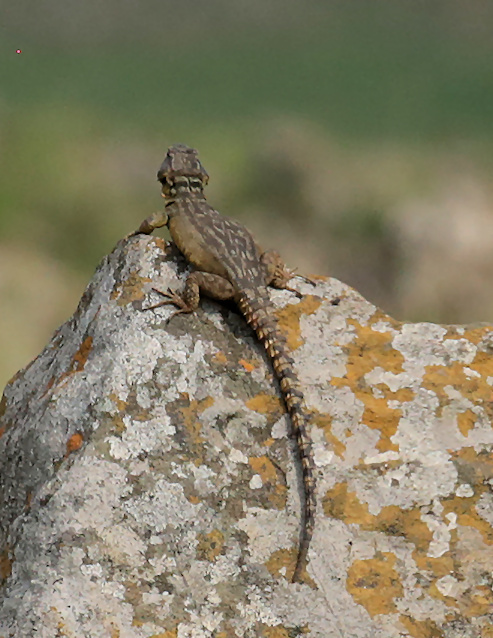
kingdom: Animalia
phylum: Chordata
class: Squamata
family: Cordylidae
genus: Pseudocordylus
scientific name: Pseudocordylus melanotus
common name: Highveld crag lizard
